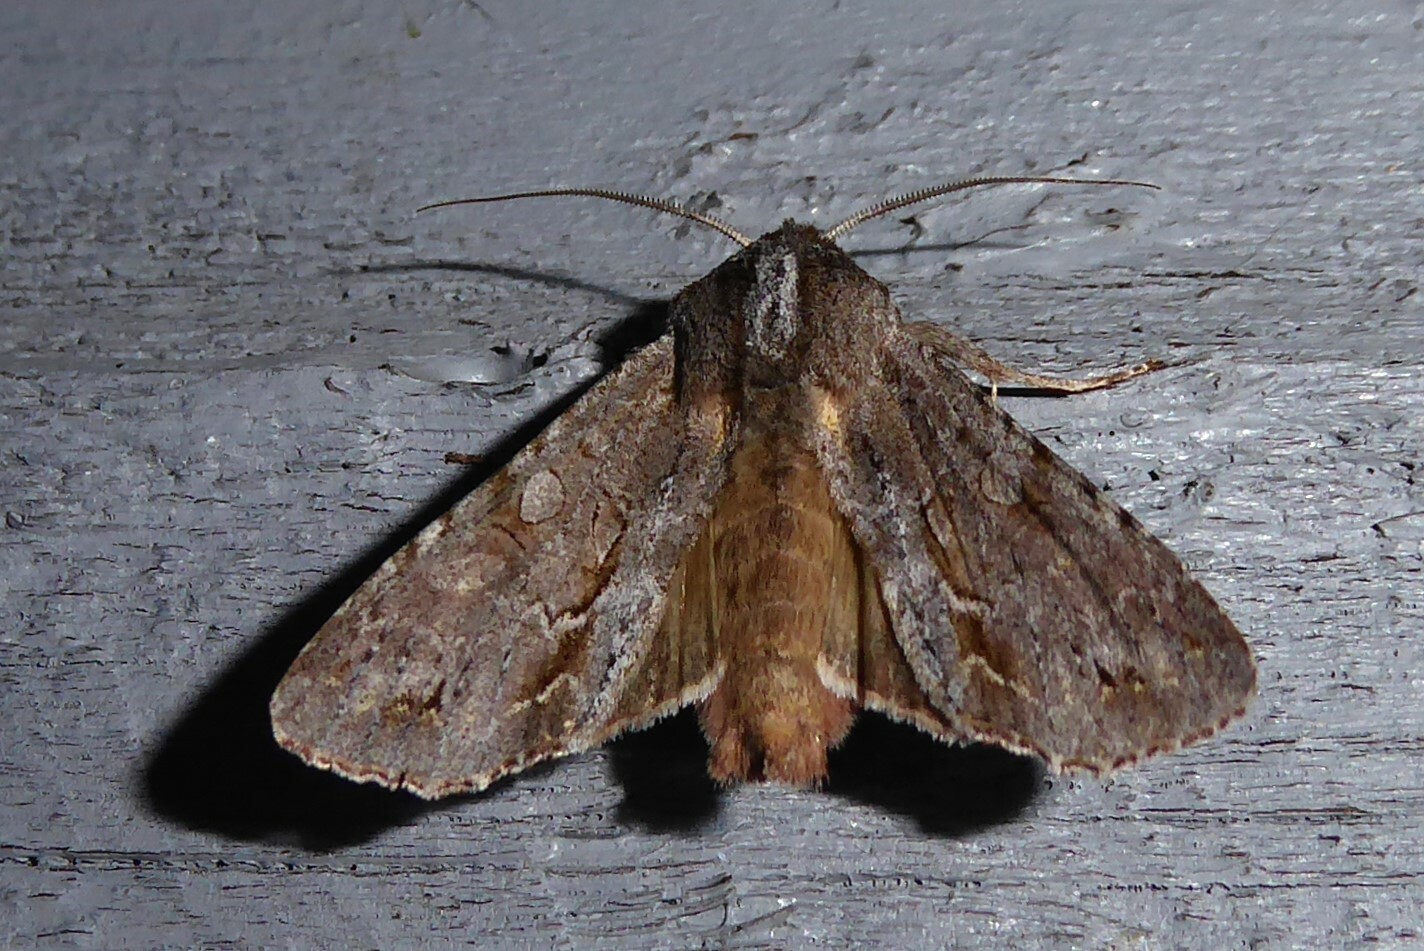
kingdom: Animalia
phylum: Arthropoda
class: Insecta
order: Lepidoptera
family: Noctuidae
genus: Ichneutica
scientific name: Ichneutica
